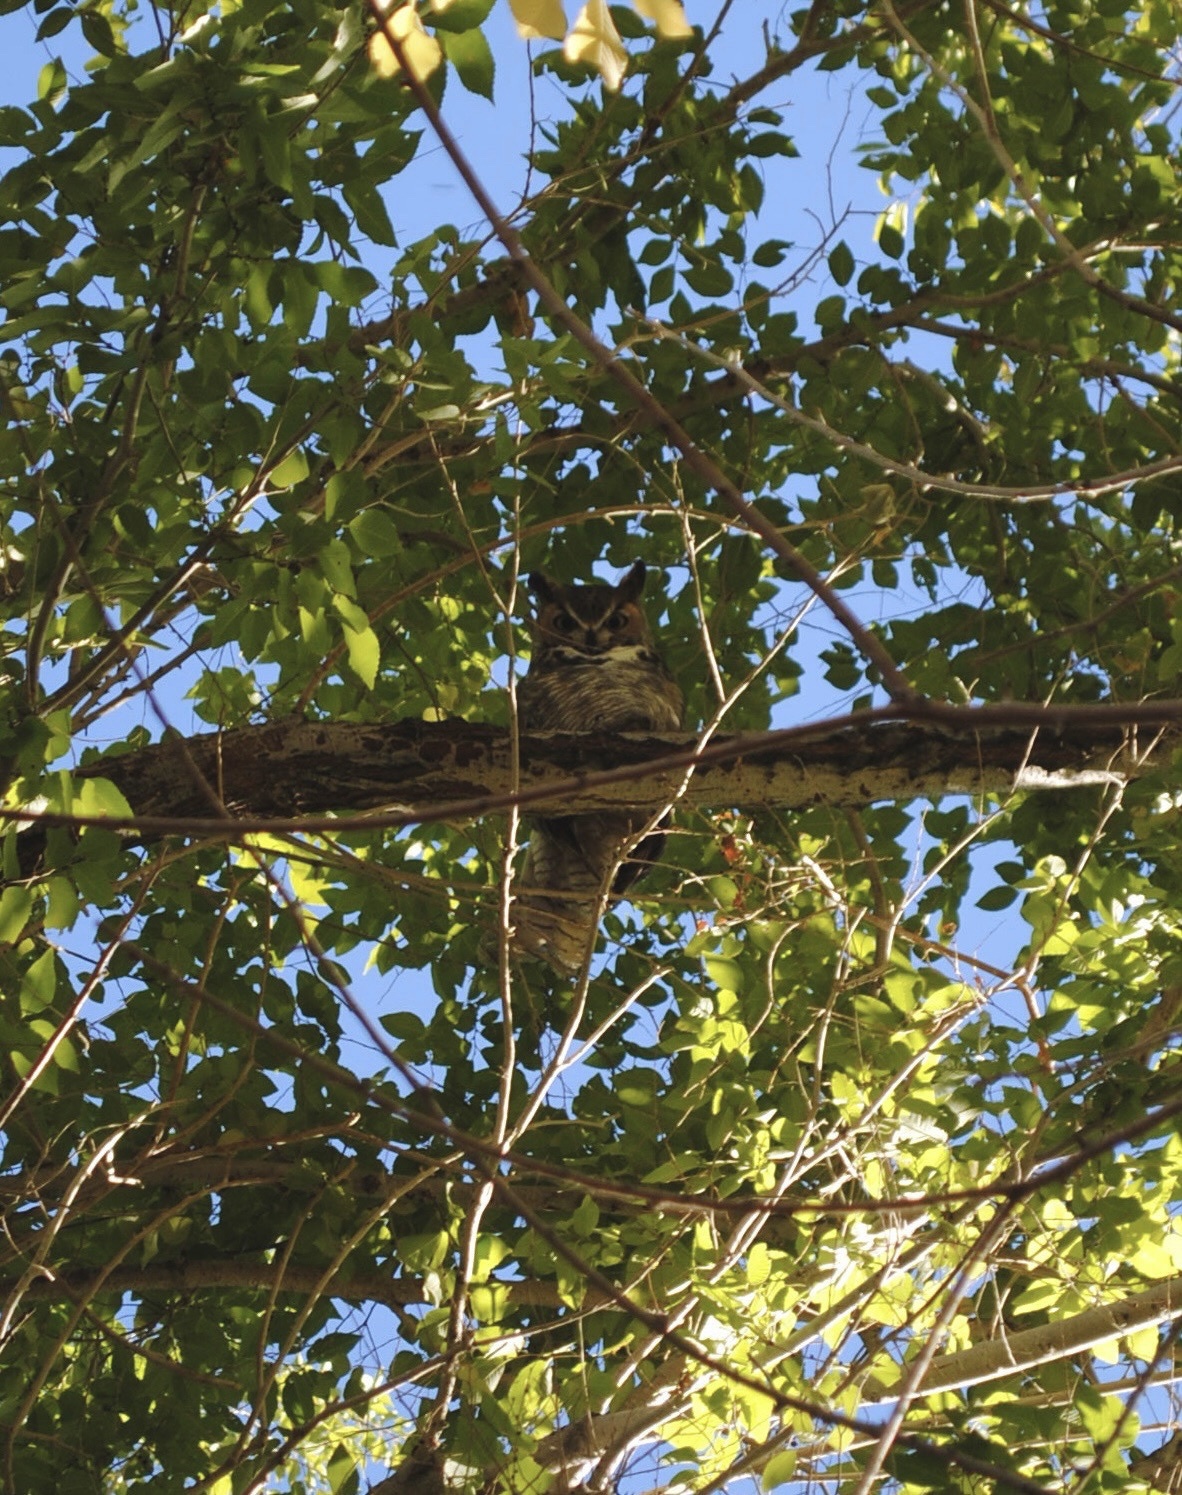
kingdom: Animalia
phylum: Chordata
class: Aves
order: Strigiformes
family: Strigidae
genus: Bubo
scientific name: Bubo virginianus
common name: Great horned owl
